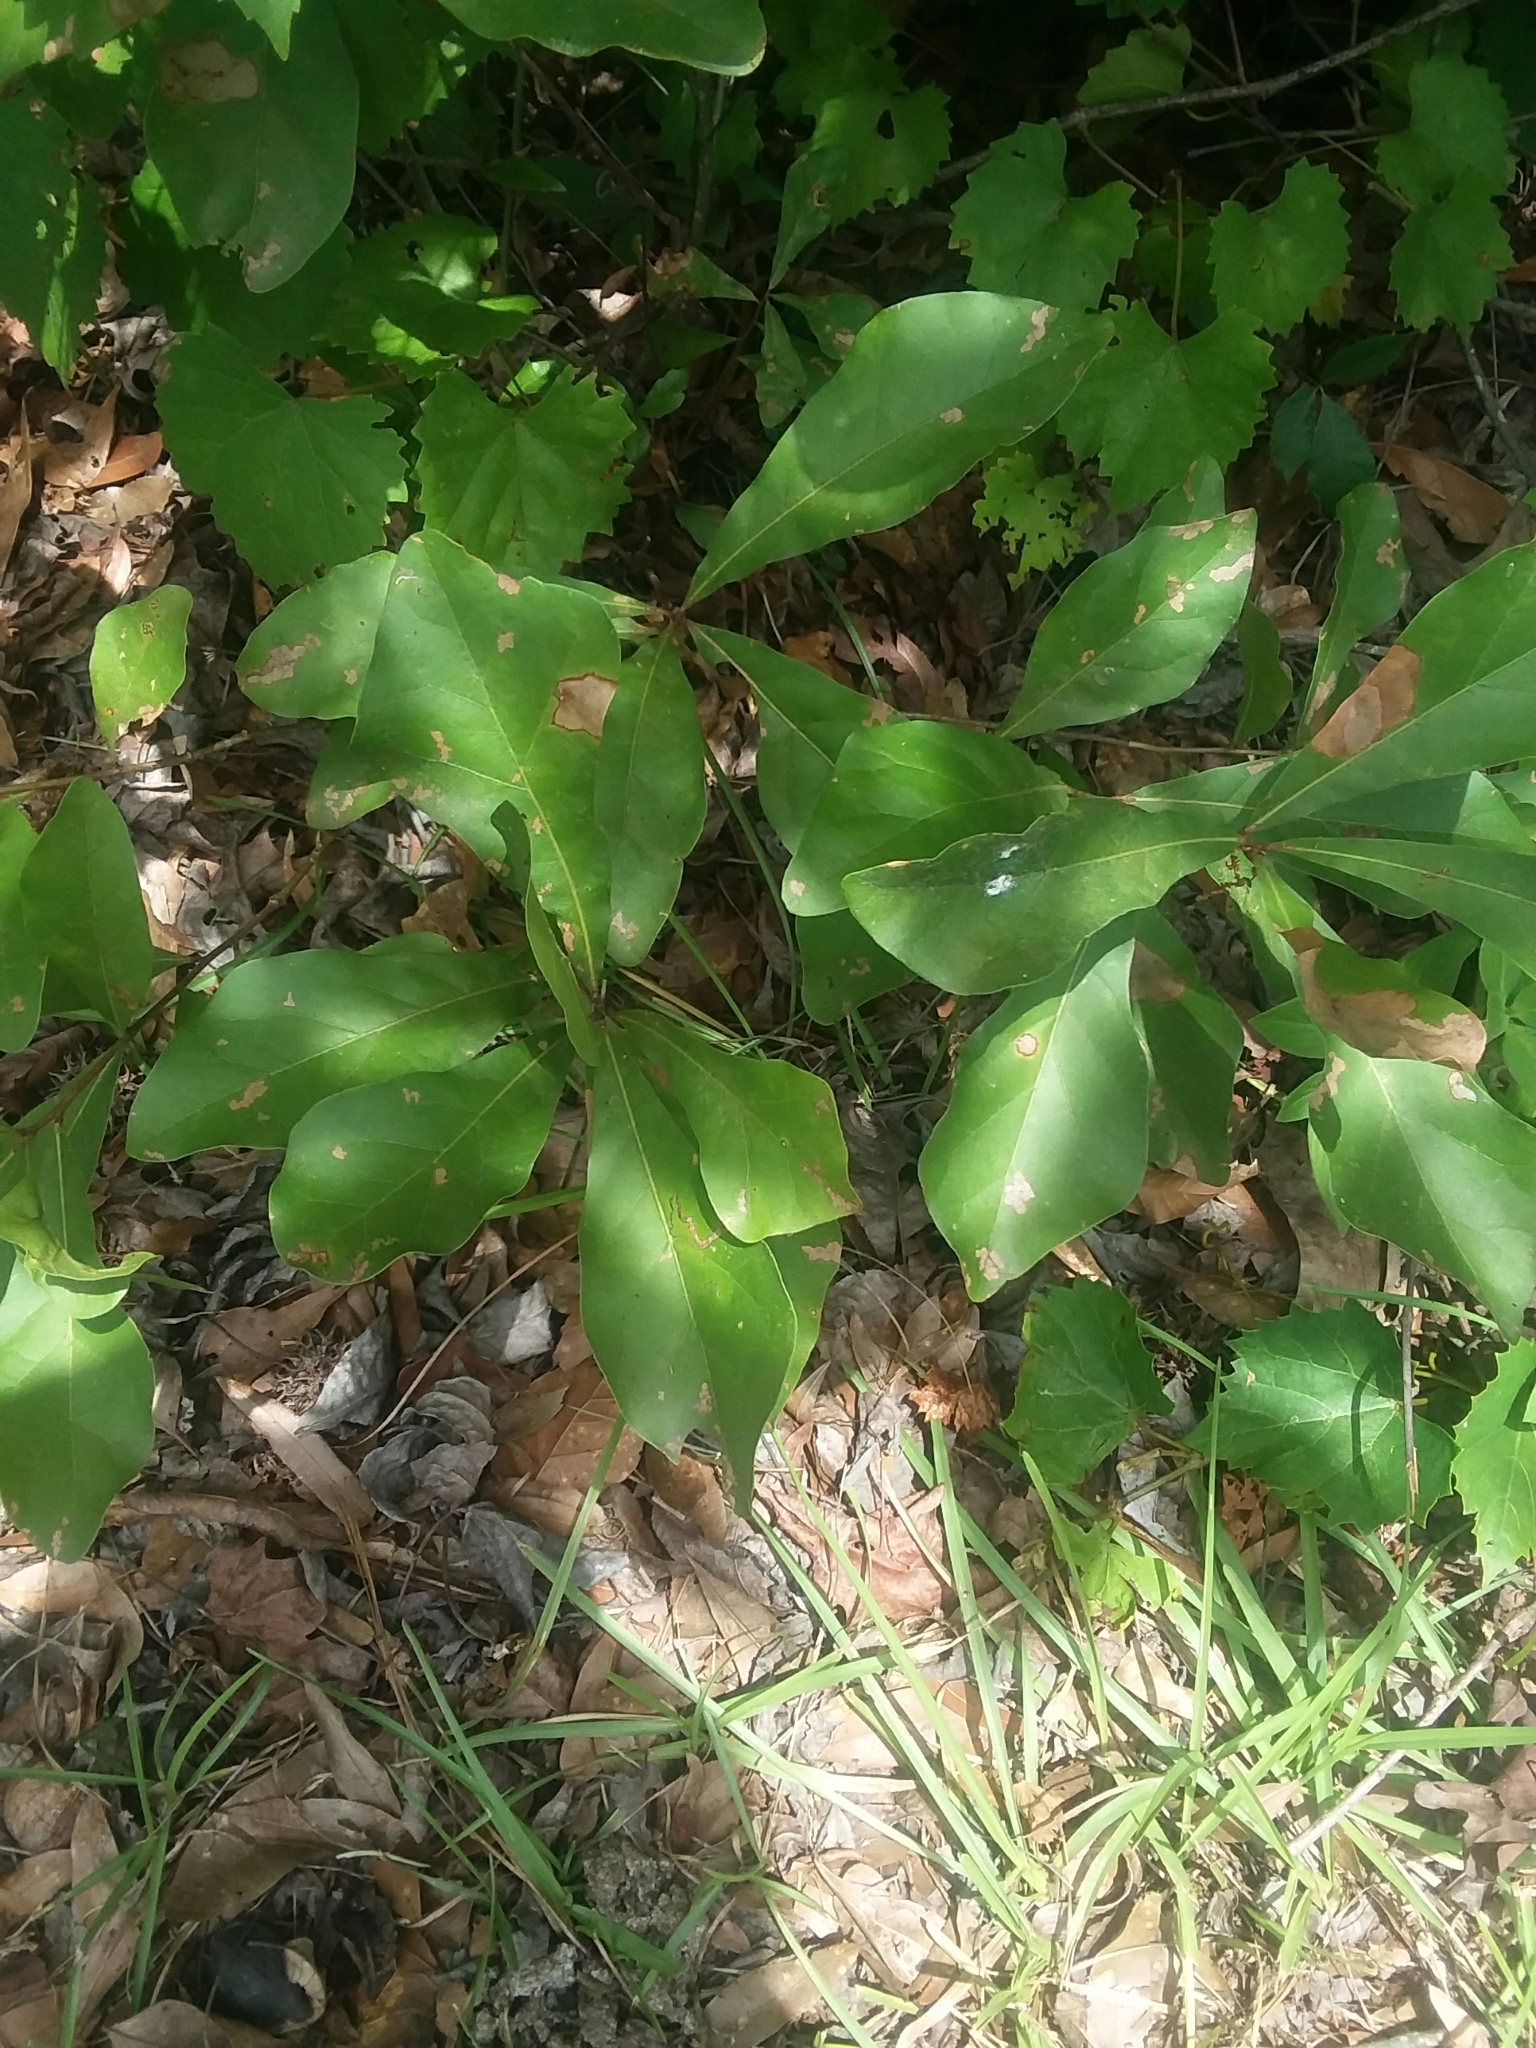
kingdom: Plantae
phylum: Tracheophyta
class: Magnoliopsida
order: Fagales
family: Fagaceae
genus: Quercus
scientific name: Quercus nigra
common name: Water oak
